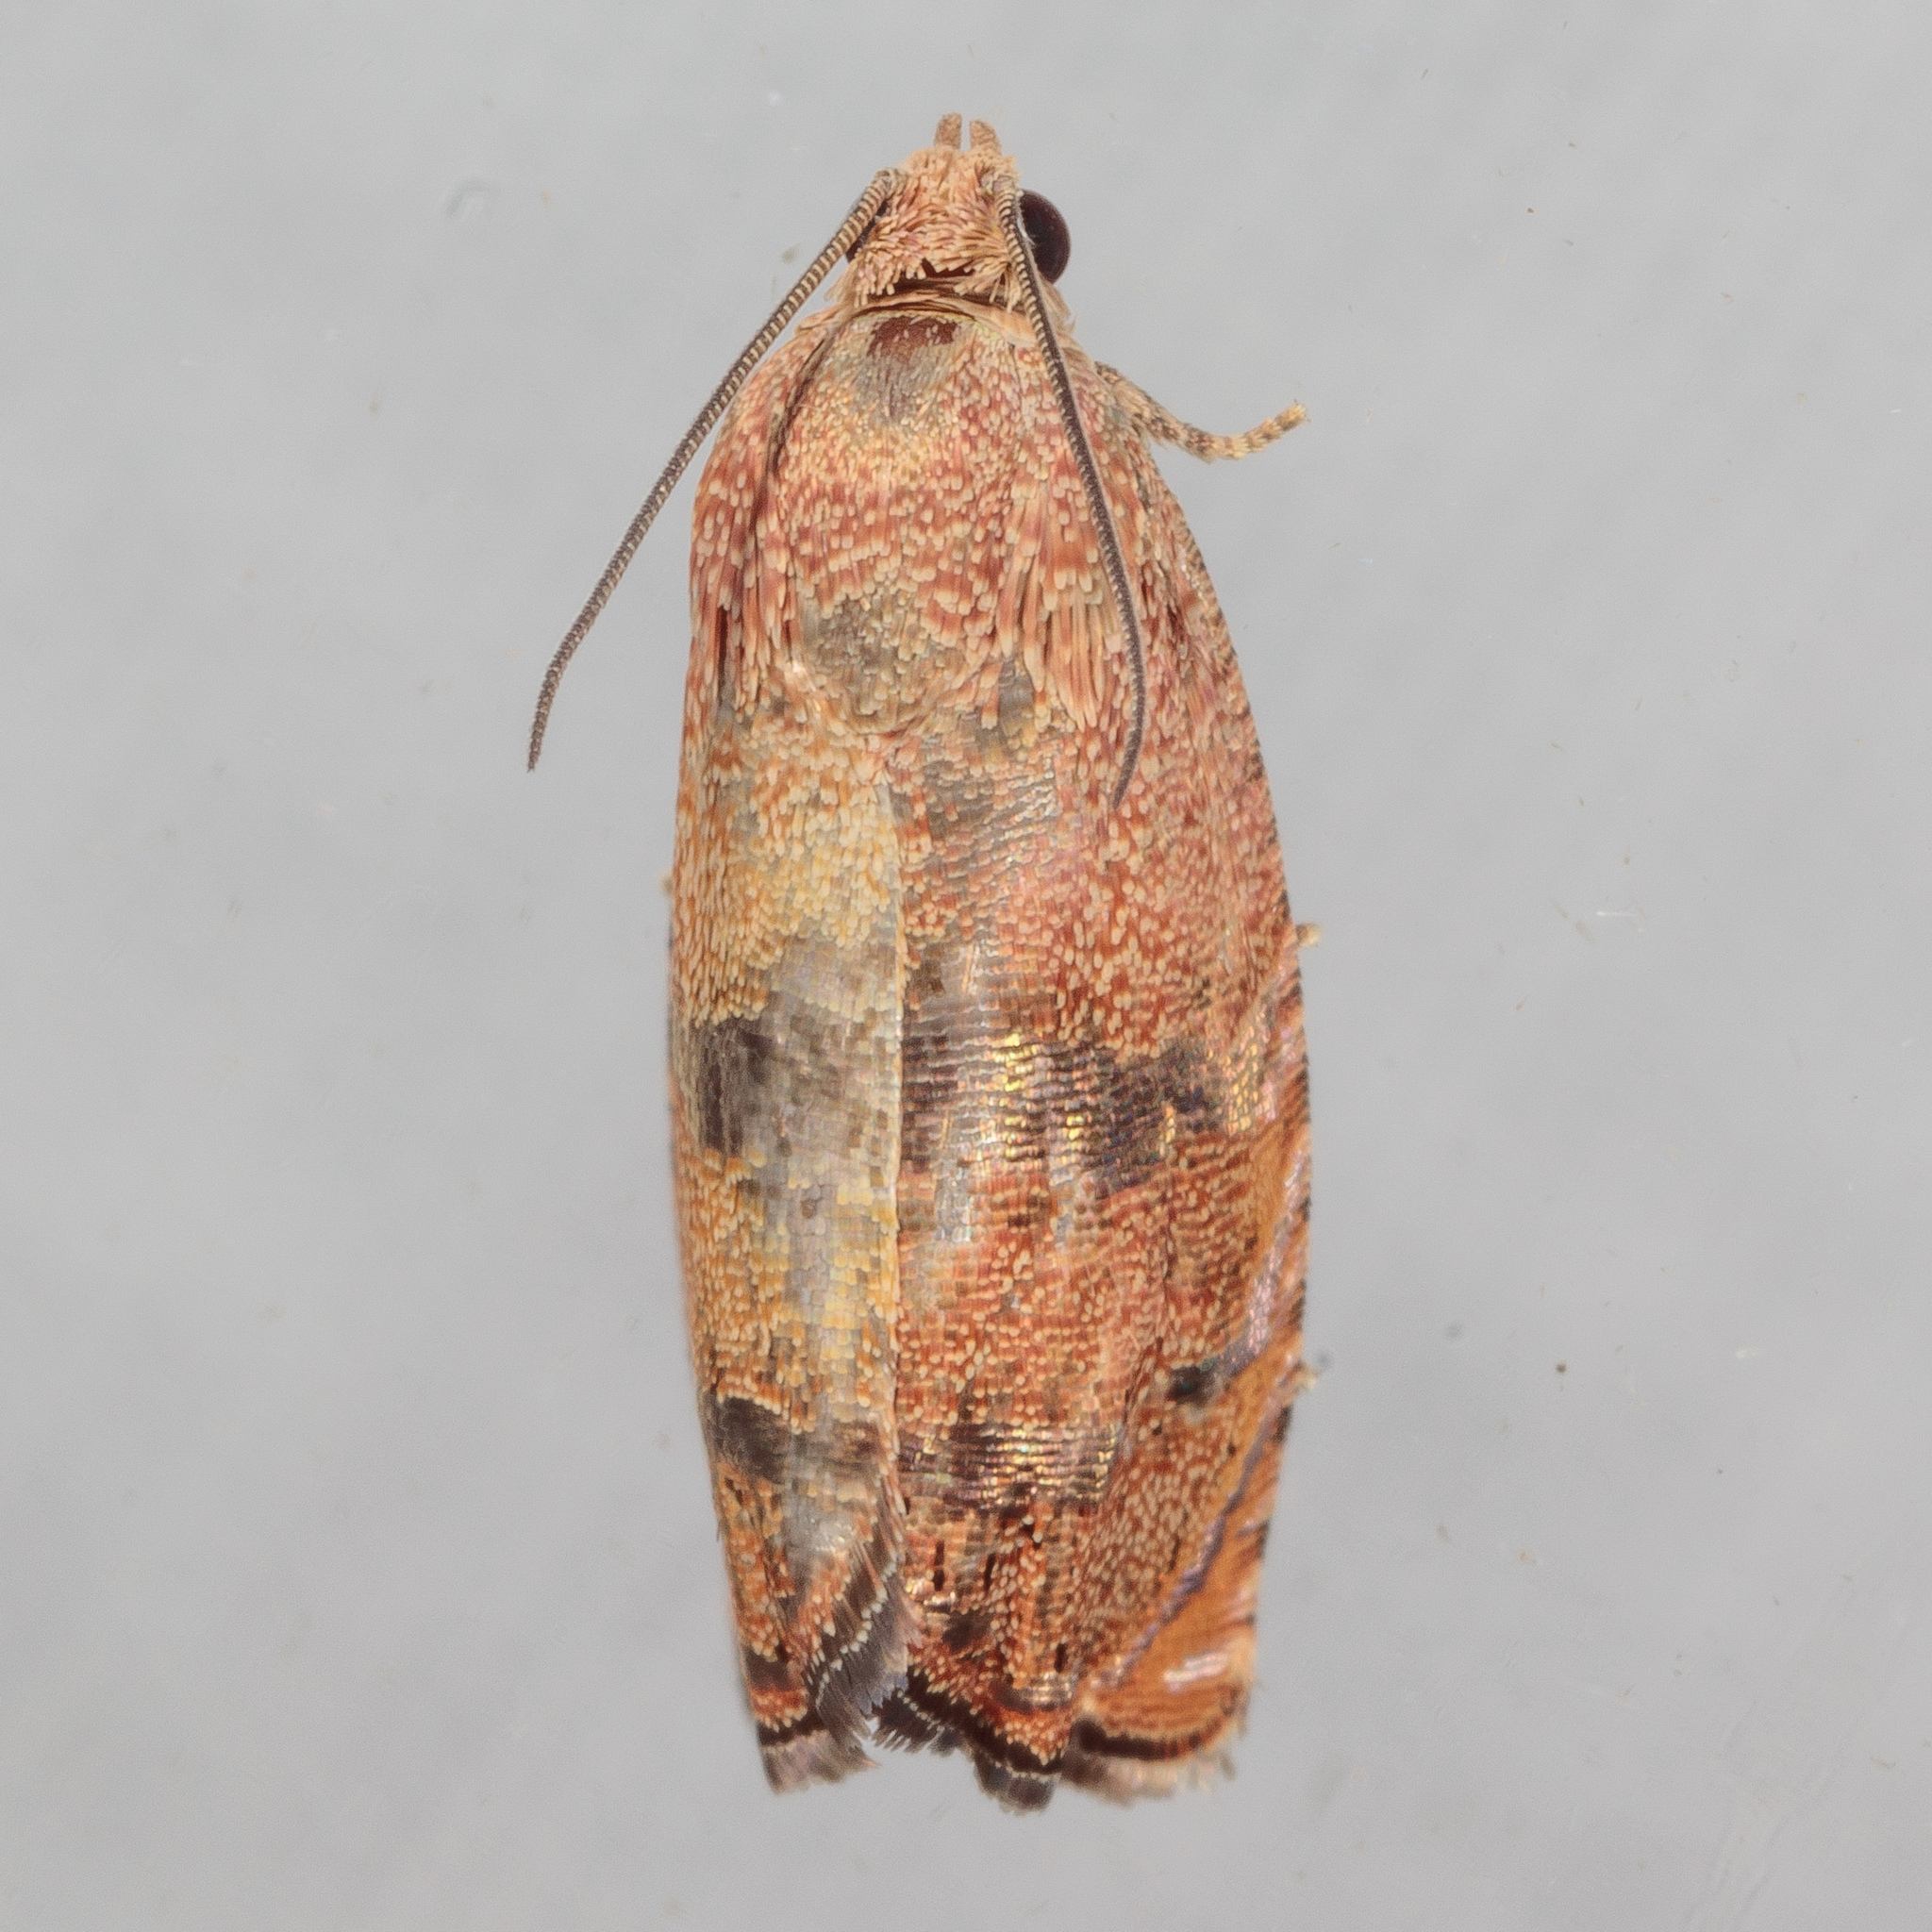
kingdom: Animalia
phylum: Arthropoda
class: Insecta
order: Lepidoptera
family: Tortricidae
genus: Cydia
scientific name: Cydia latiferreana
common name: Filbertworm moth
